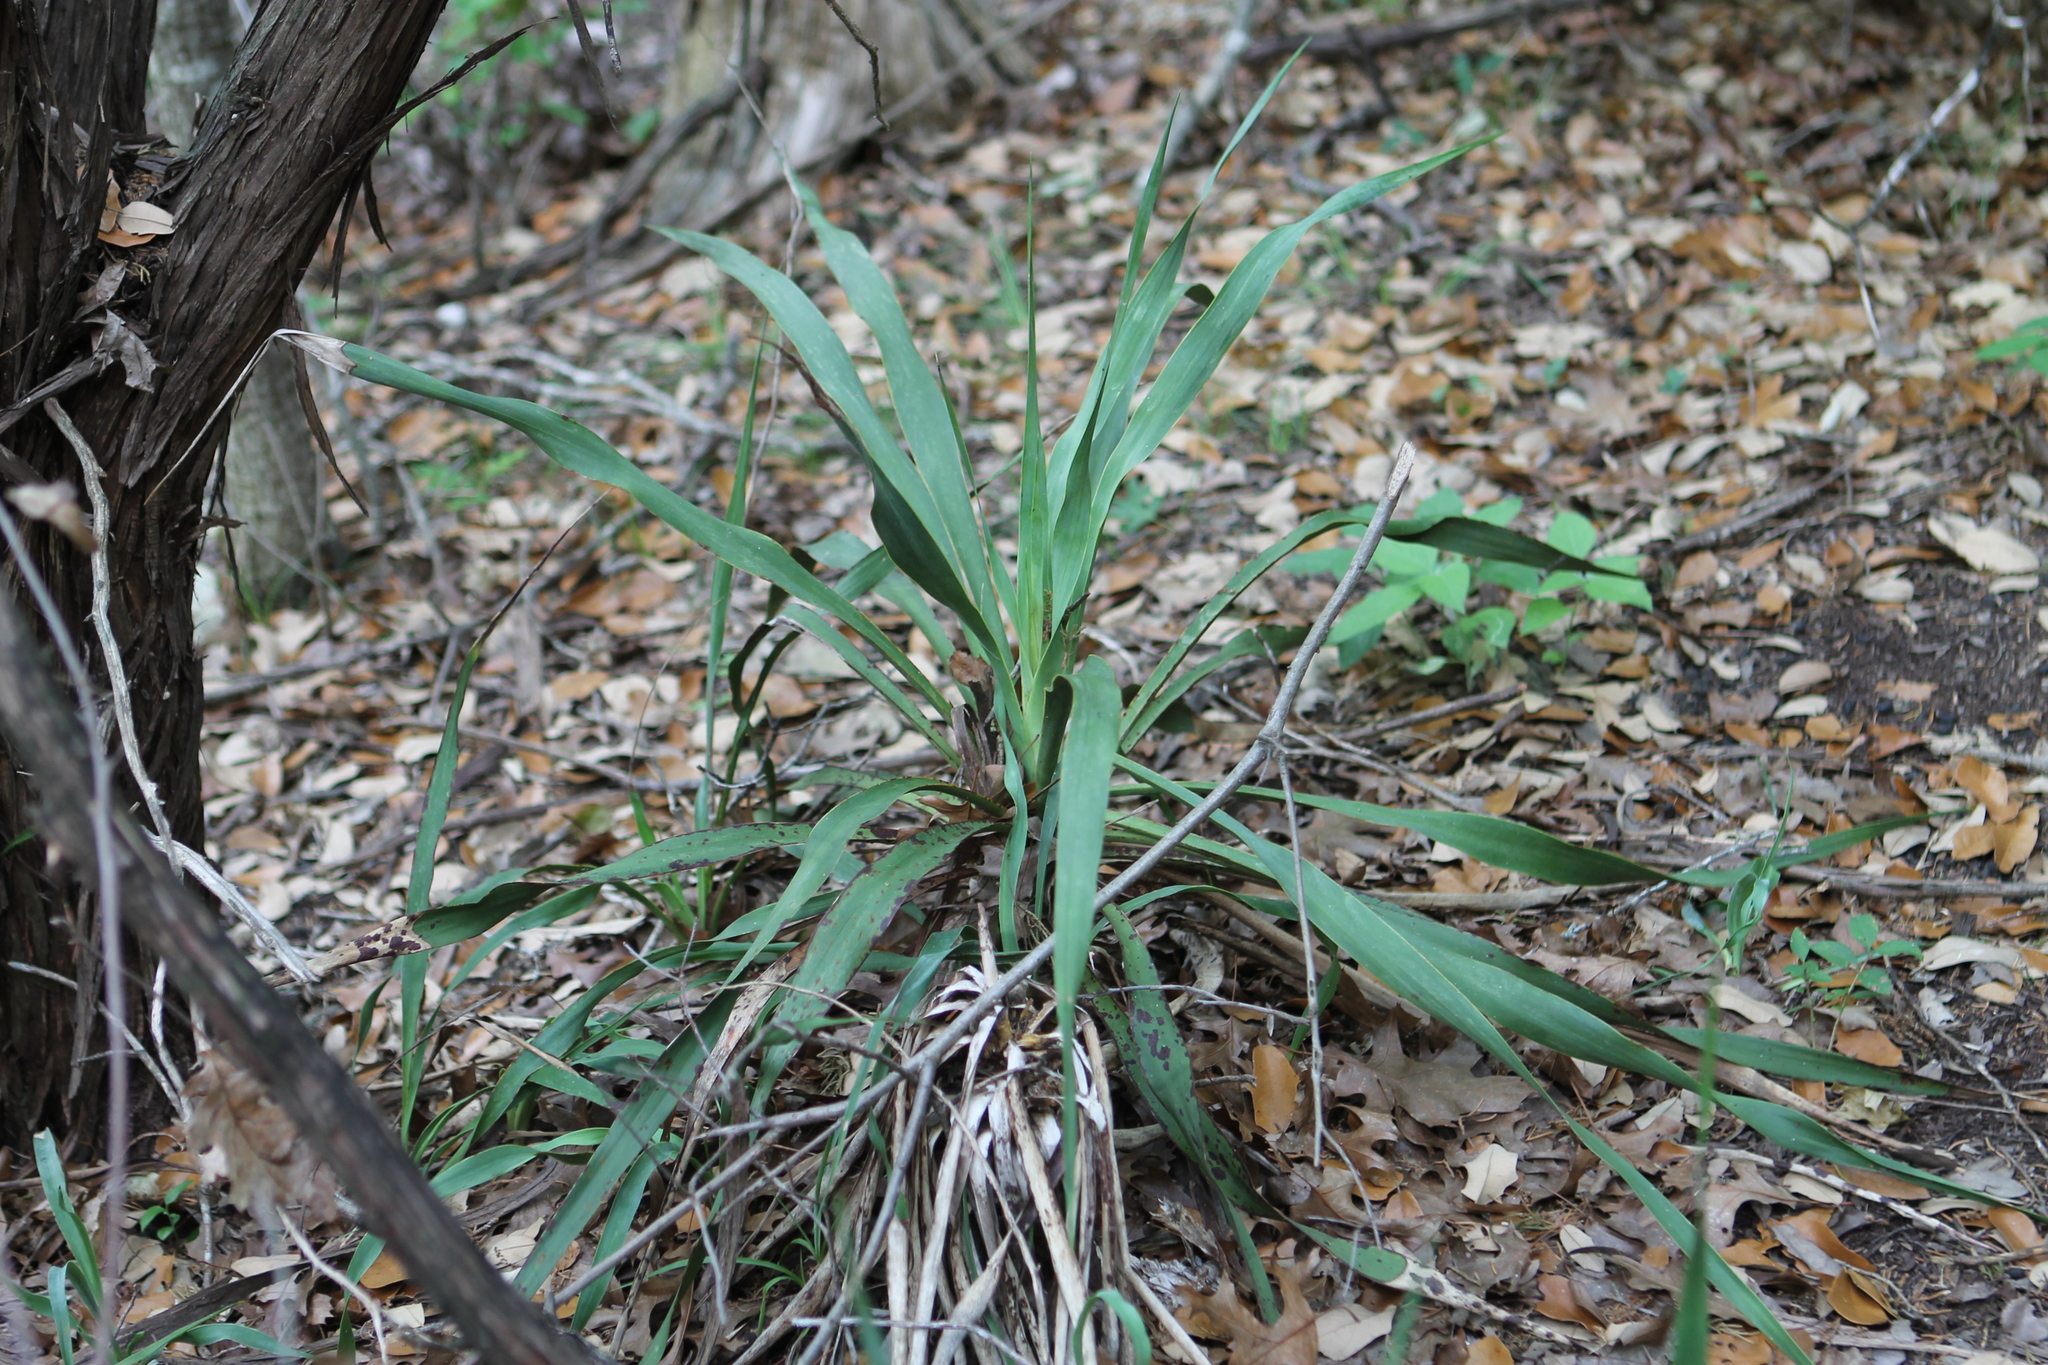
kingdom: Plantae
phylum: Tracheophyta
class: Liliopsida
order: Asparagales
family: Asparagaceae
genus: Yucca
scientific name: Yucca rupicola
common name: Twisted-leaf spanish-dagger
